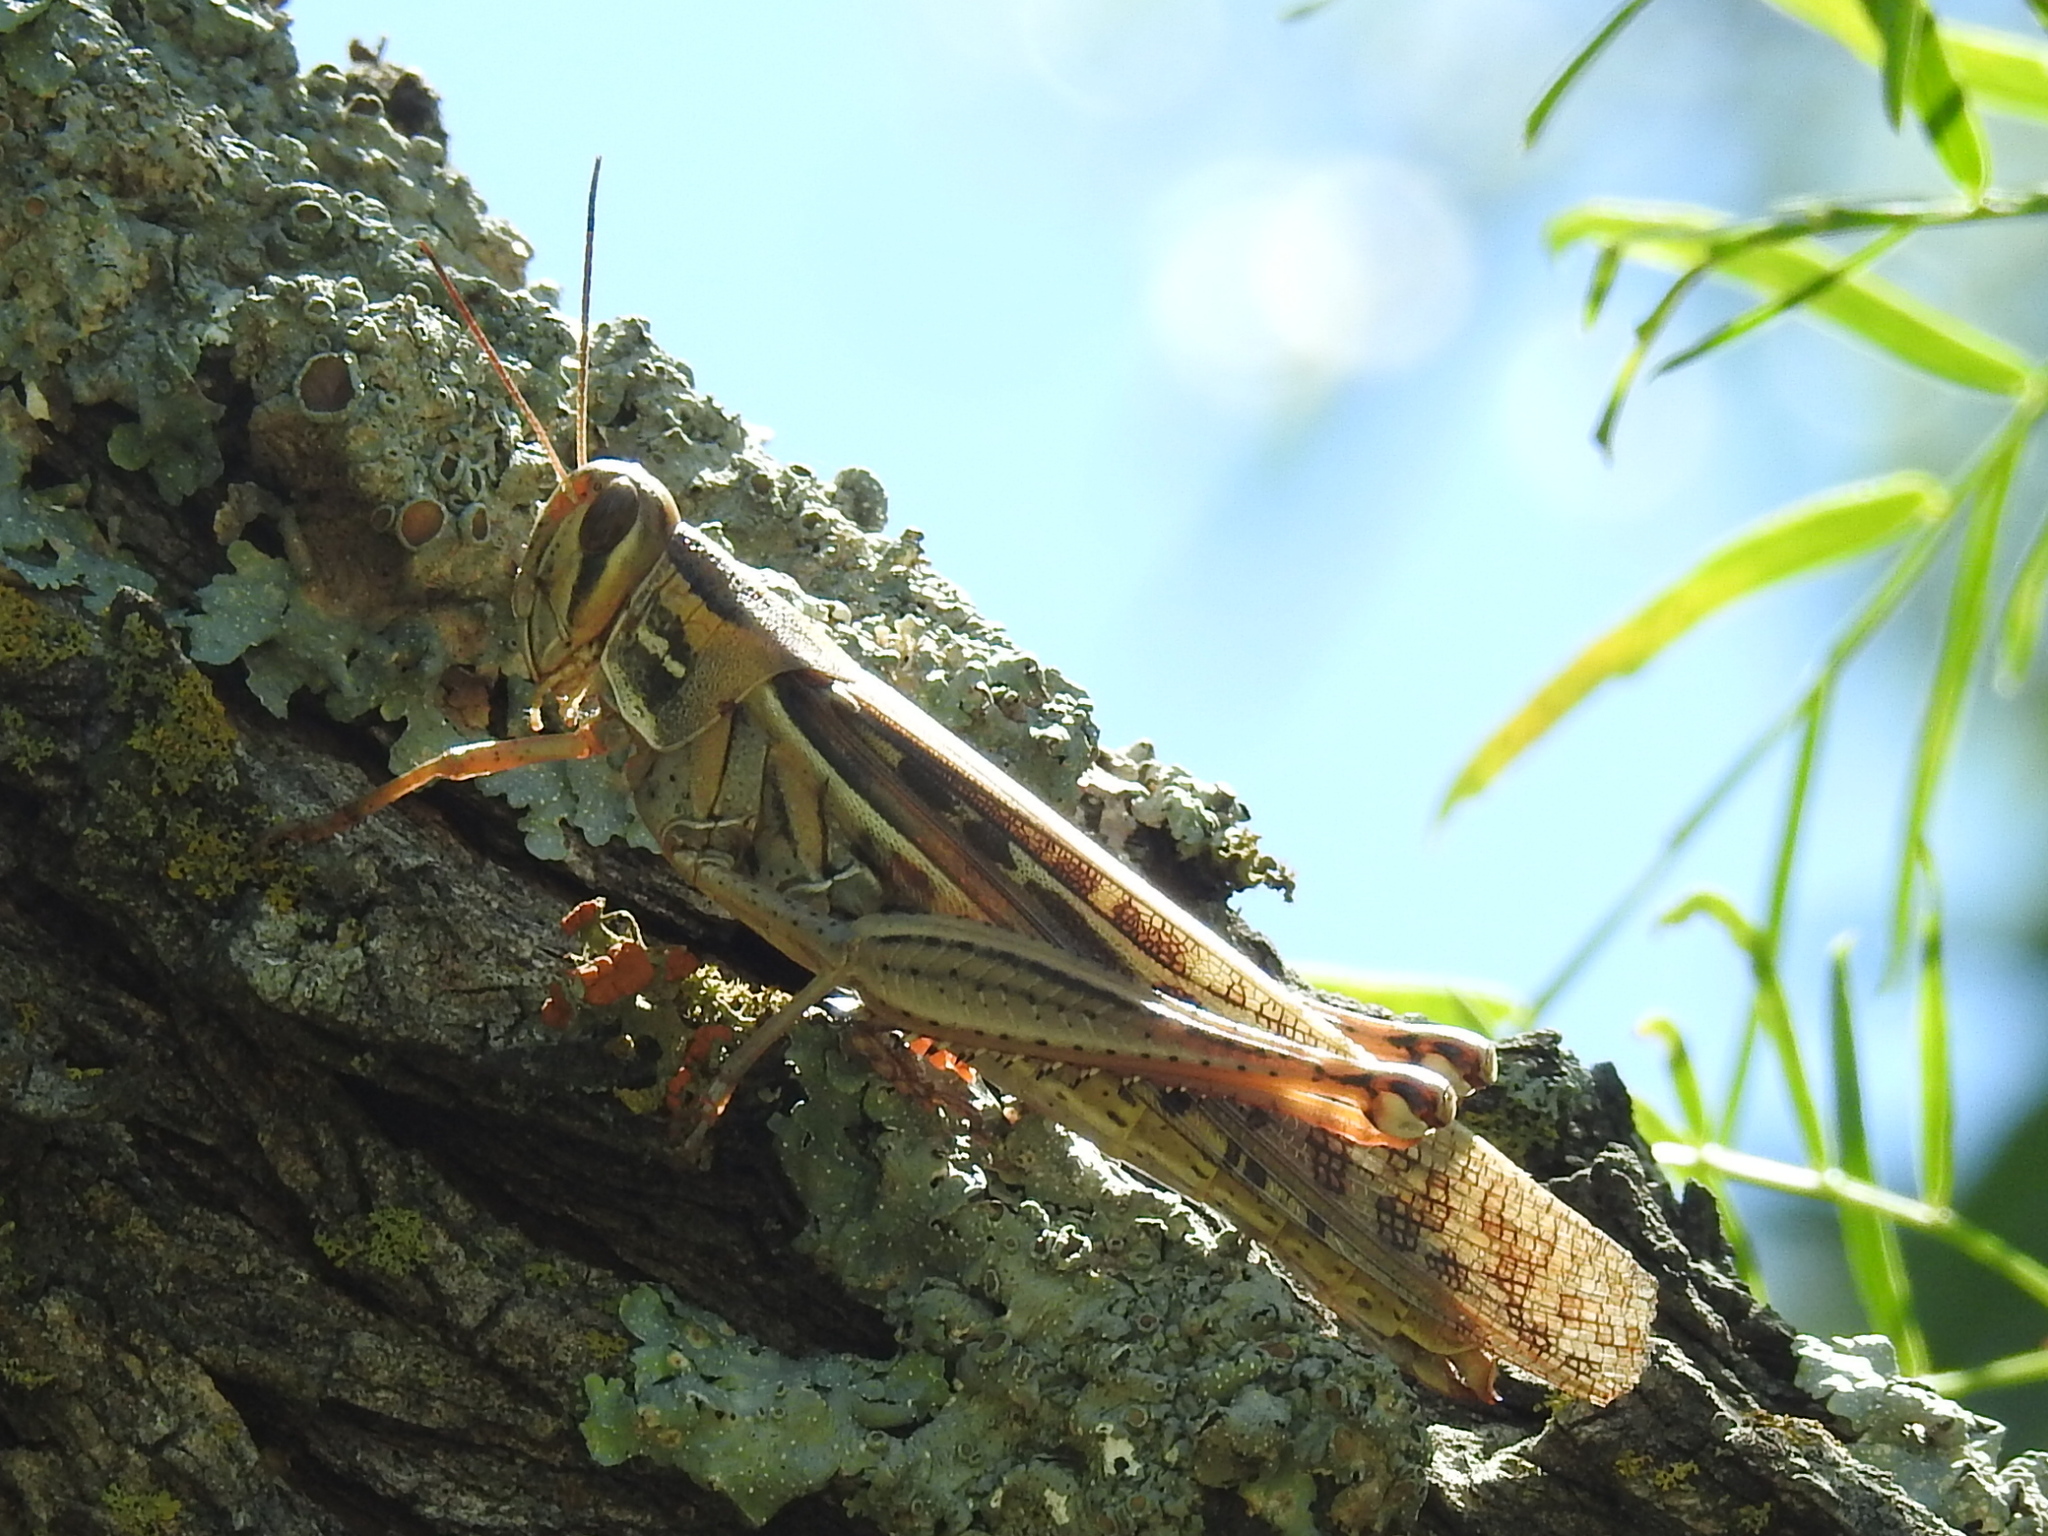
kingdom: Animalia
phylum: Arthropoda
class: Insecta
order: Orthoptera
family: Acrididae
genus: Schistocerca
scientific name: Schistocerca americana
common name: American bird locust
